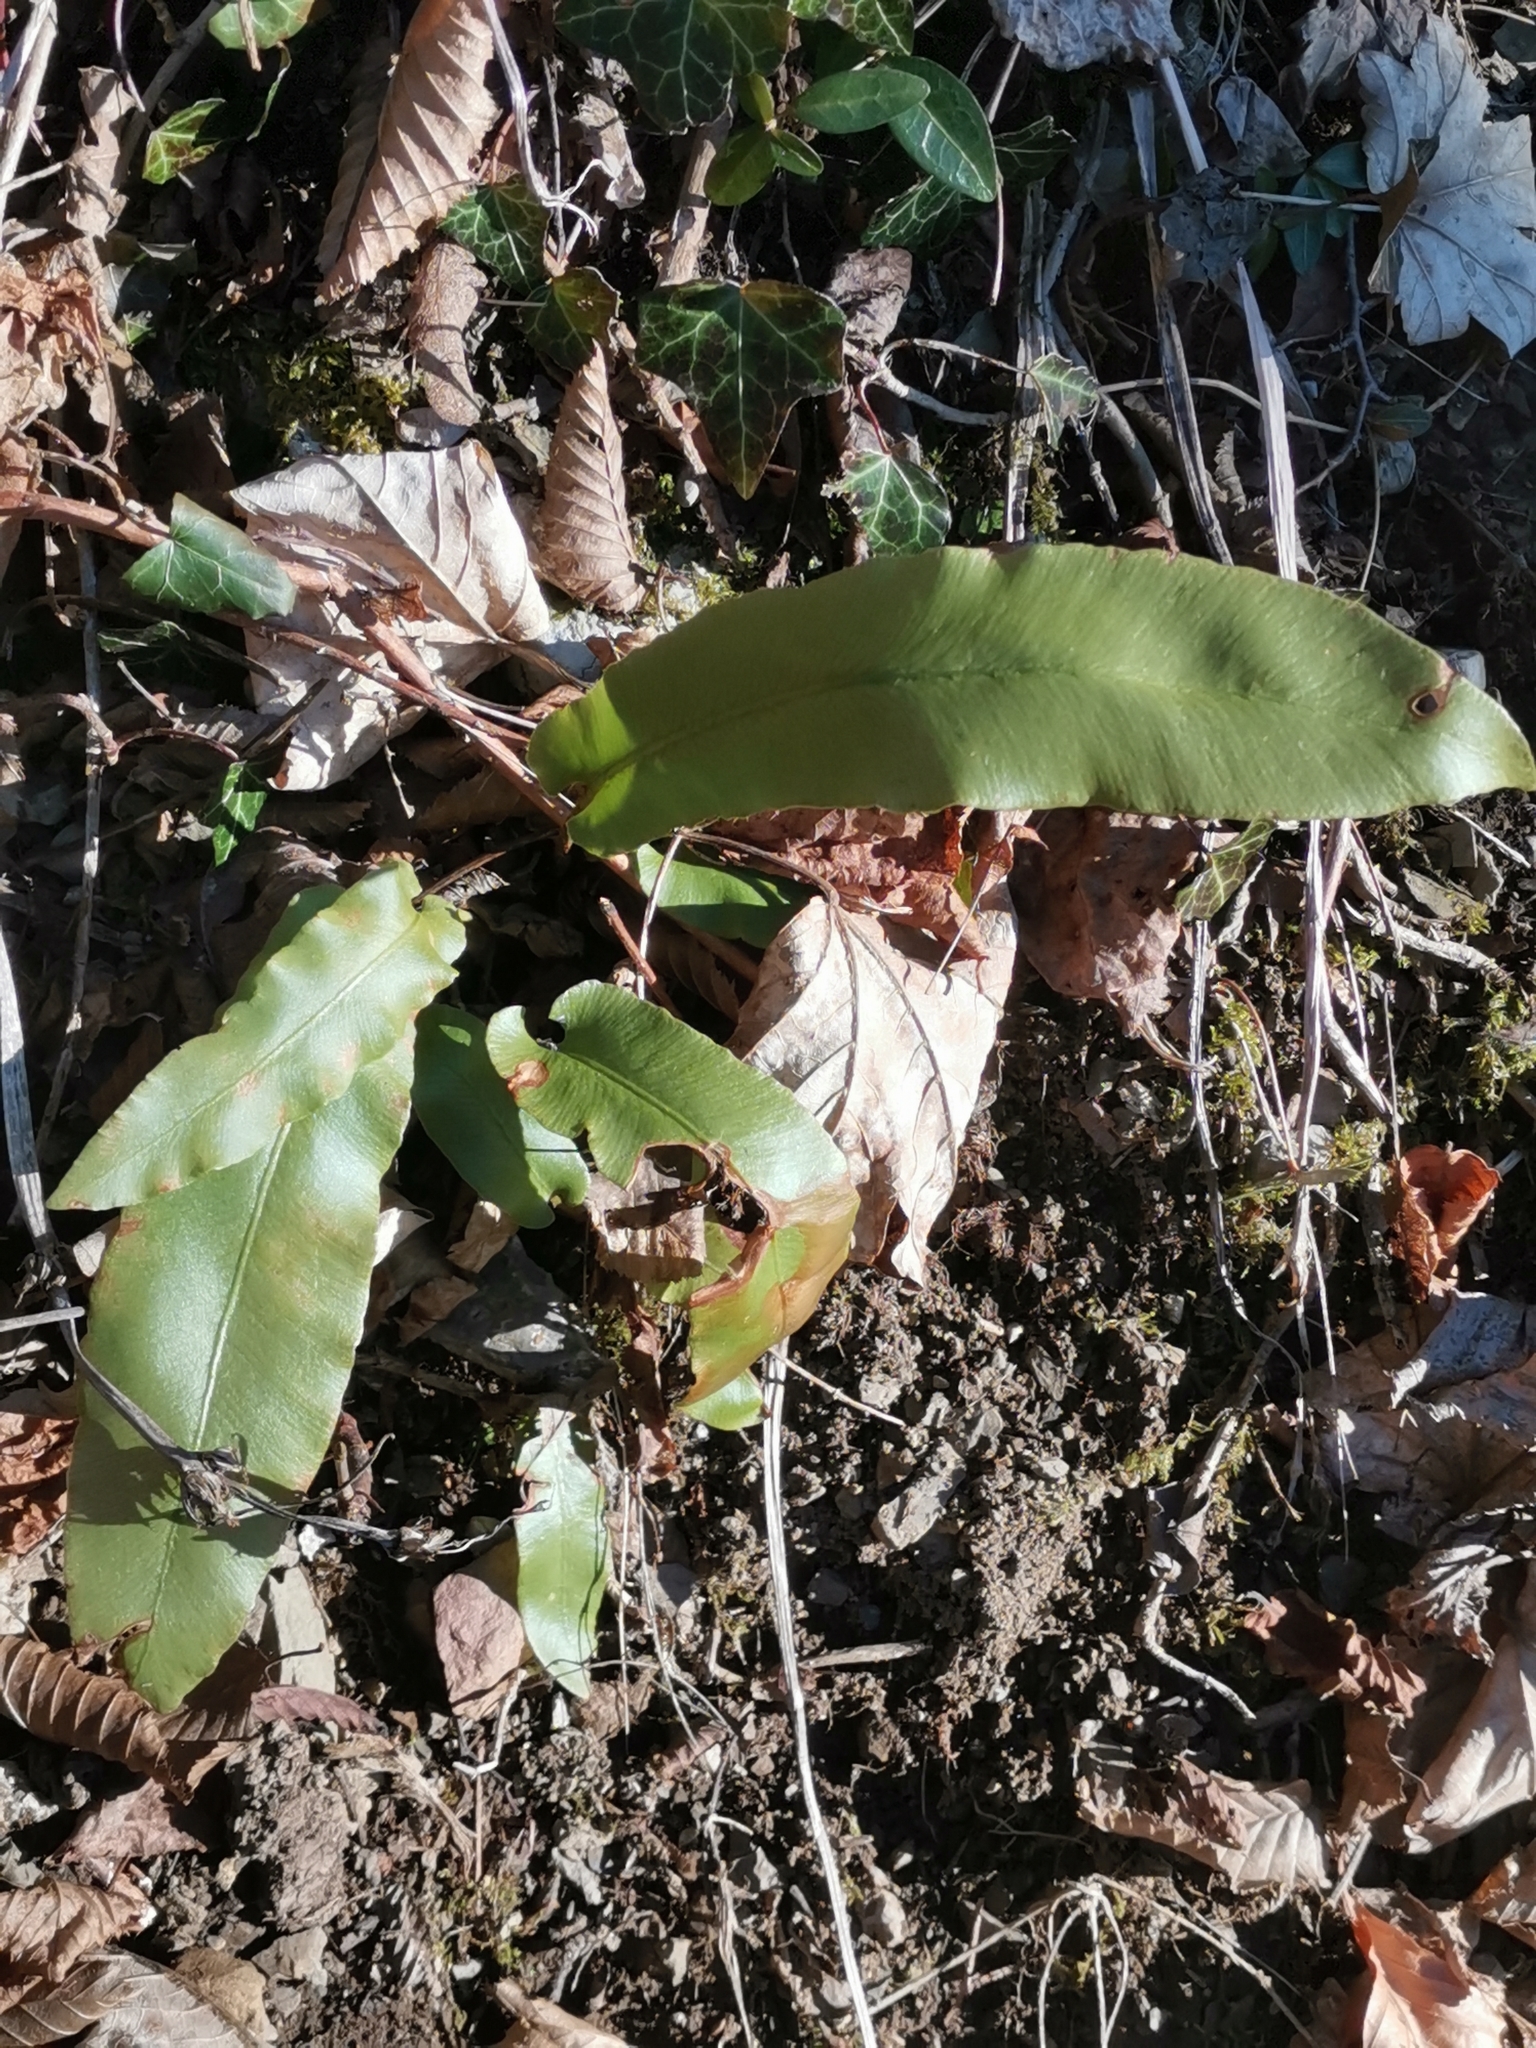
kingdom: Plantae
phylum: Tracheophyta
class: Polypodiopsida
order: Polypodiales
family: Aspleniaceae
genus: Asplenium
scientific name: Asplenium scolopendrium
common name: Hart's-tongue fern
